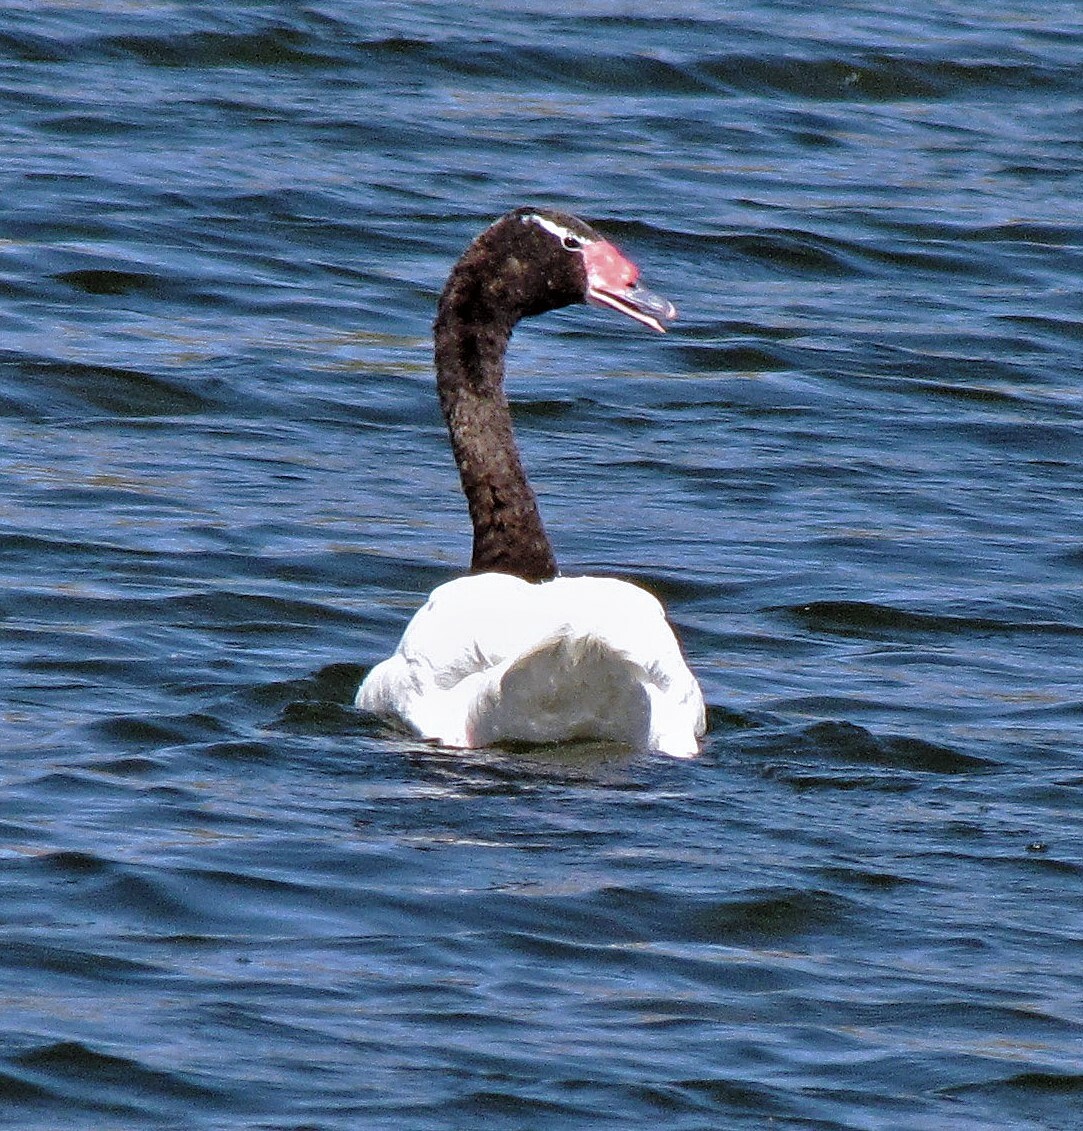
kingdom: Animalia
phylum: Chordata
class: Aves
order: Anseriformes
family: Anatidae
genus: Cygnus
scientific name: Cygnus melancoryphus
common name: Black-necked swan
